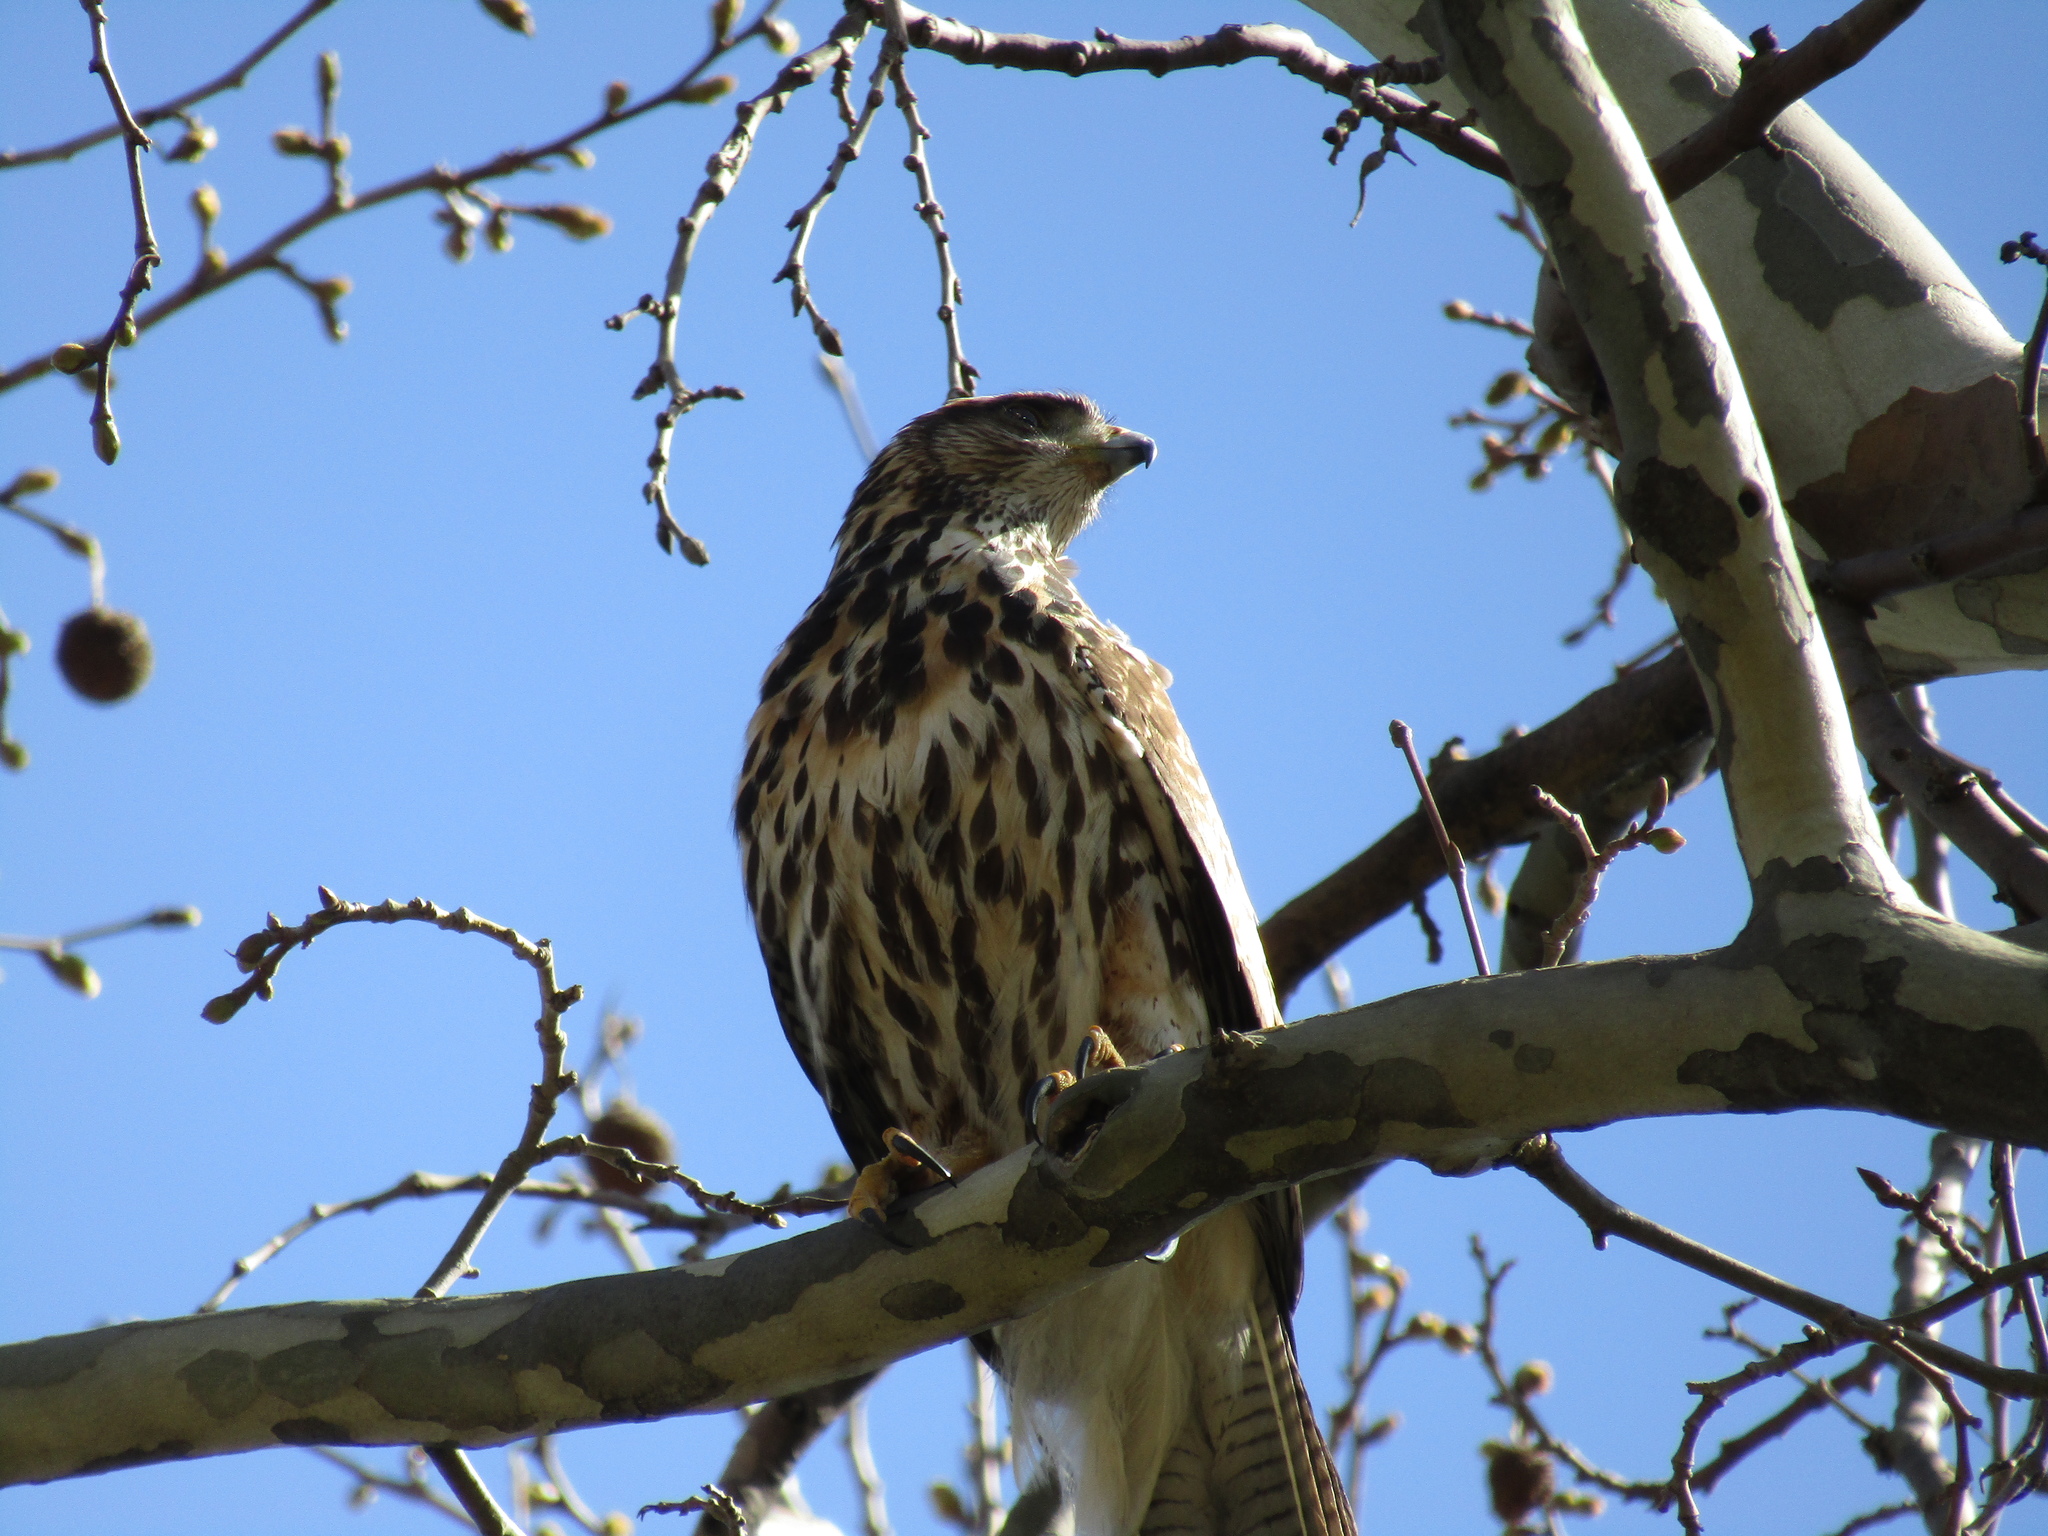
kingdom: Animalia
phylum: Chordata
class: Aves
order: Accipitriformes
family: Accipitridae
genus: Parabuteo
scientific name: Parabuteo unicinctus
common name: Harris's hawk
